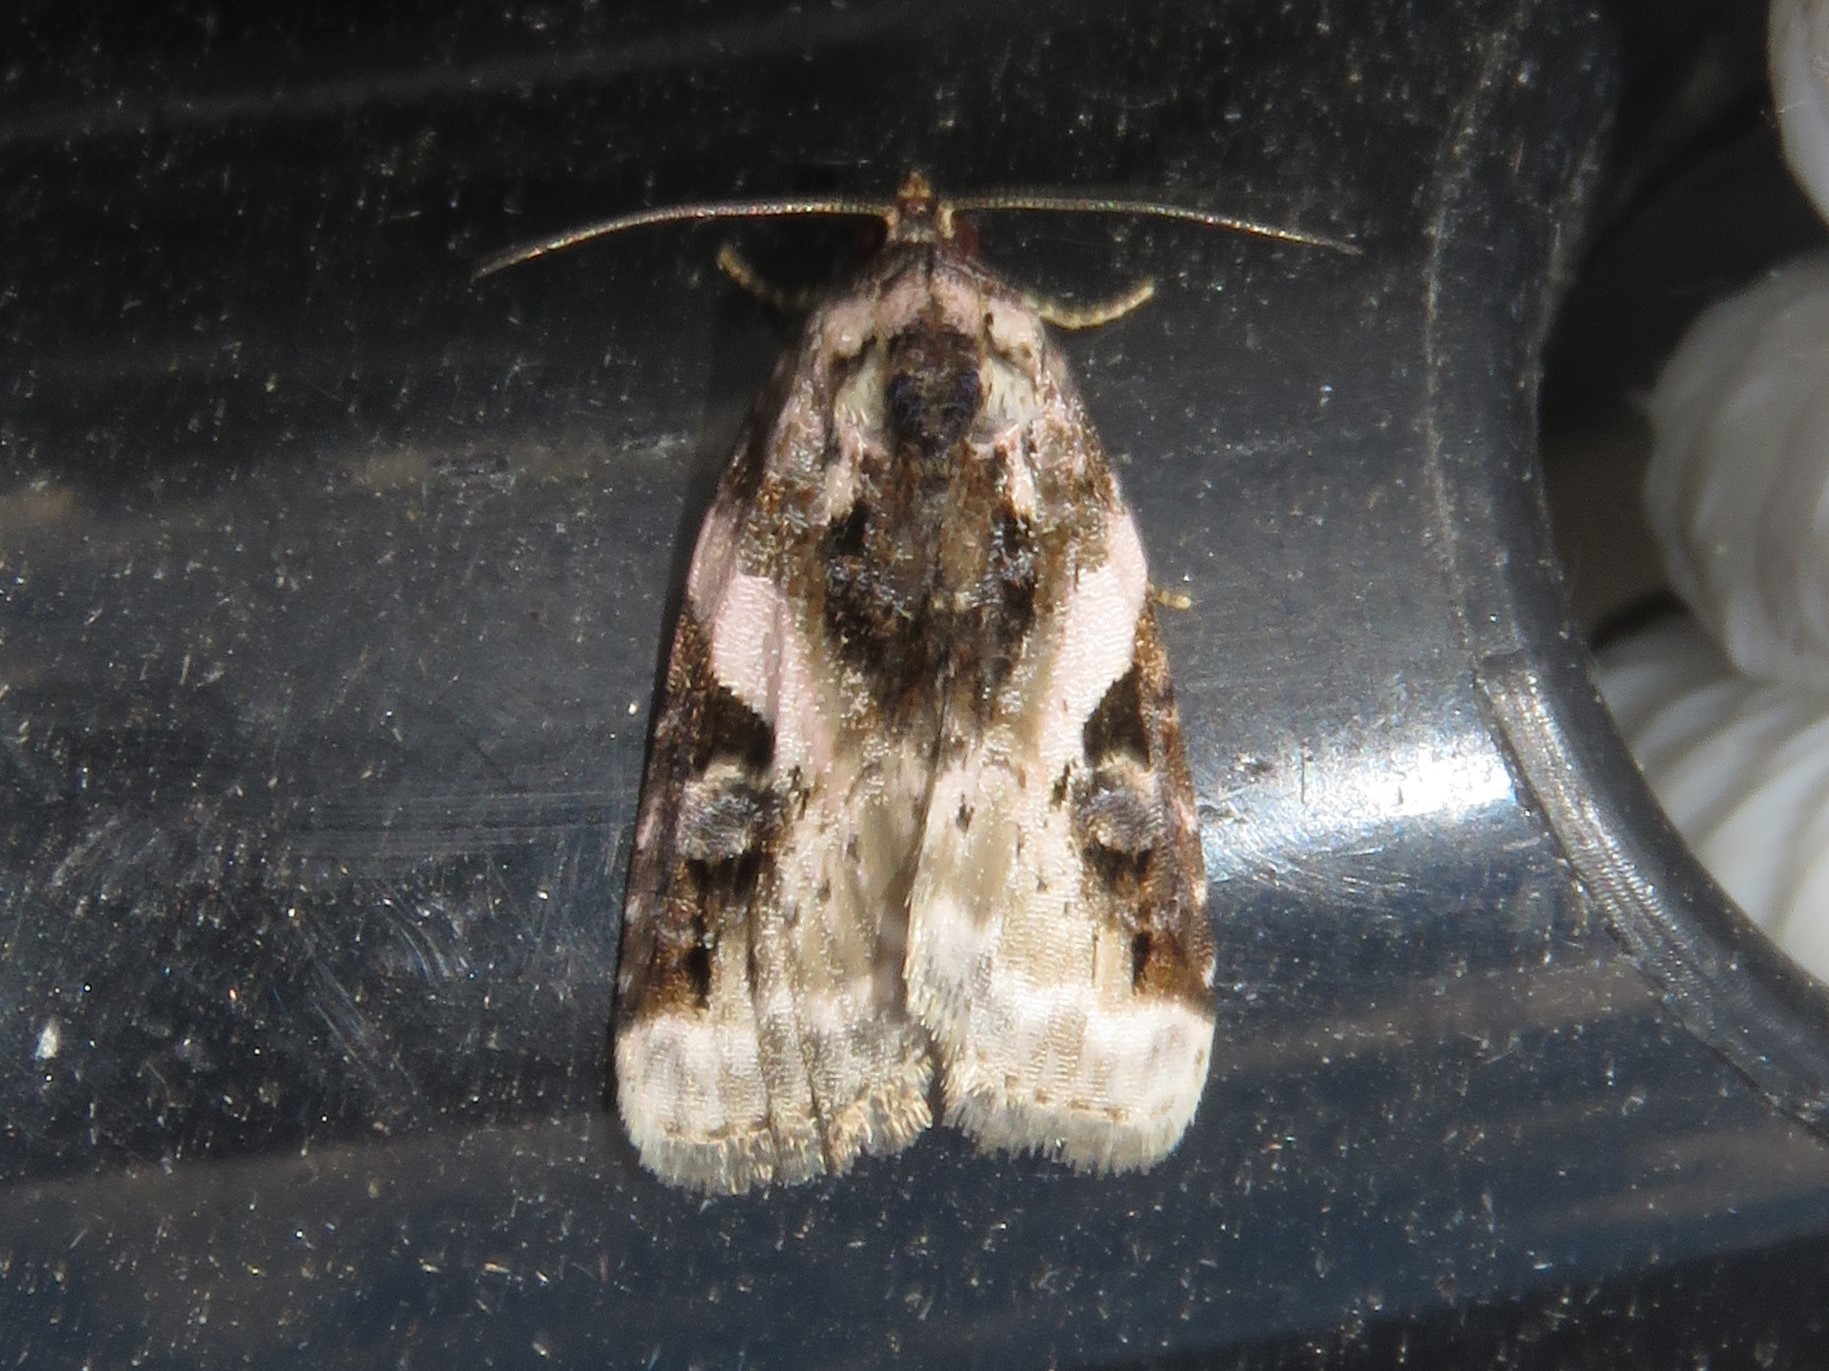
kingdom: Animalia
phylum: Arthropoda
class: Insecta
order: Lepidoptera
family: Noctuidae
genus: Pseudeustrotia
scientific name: Pseudeustrotia carneola
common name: Pink-barred lithacodia moth
